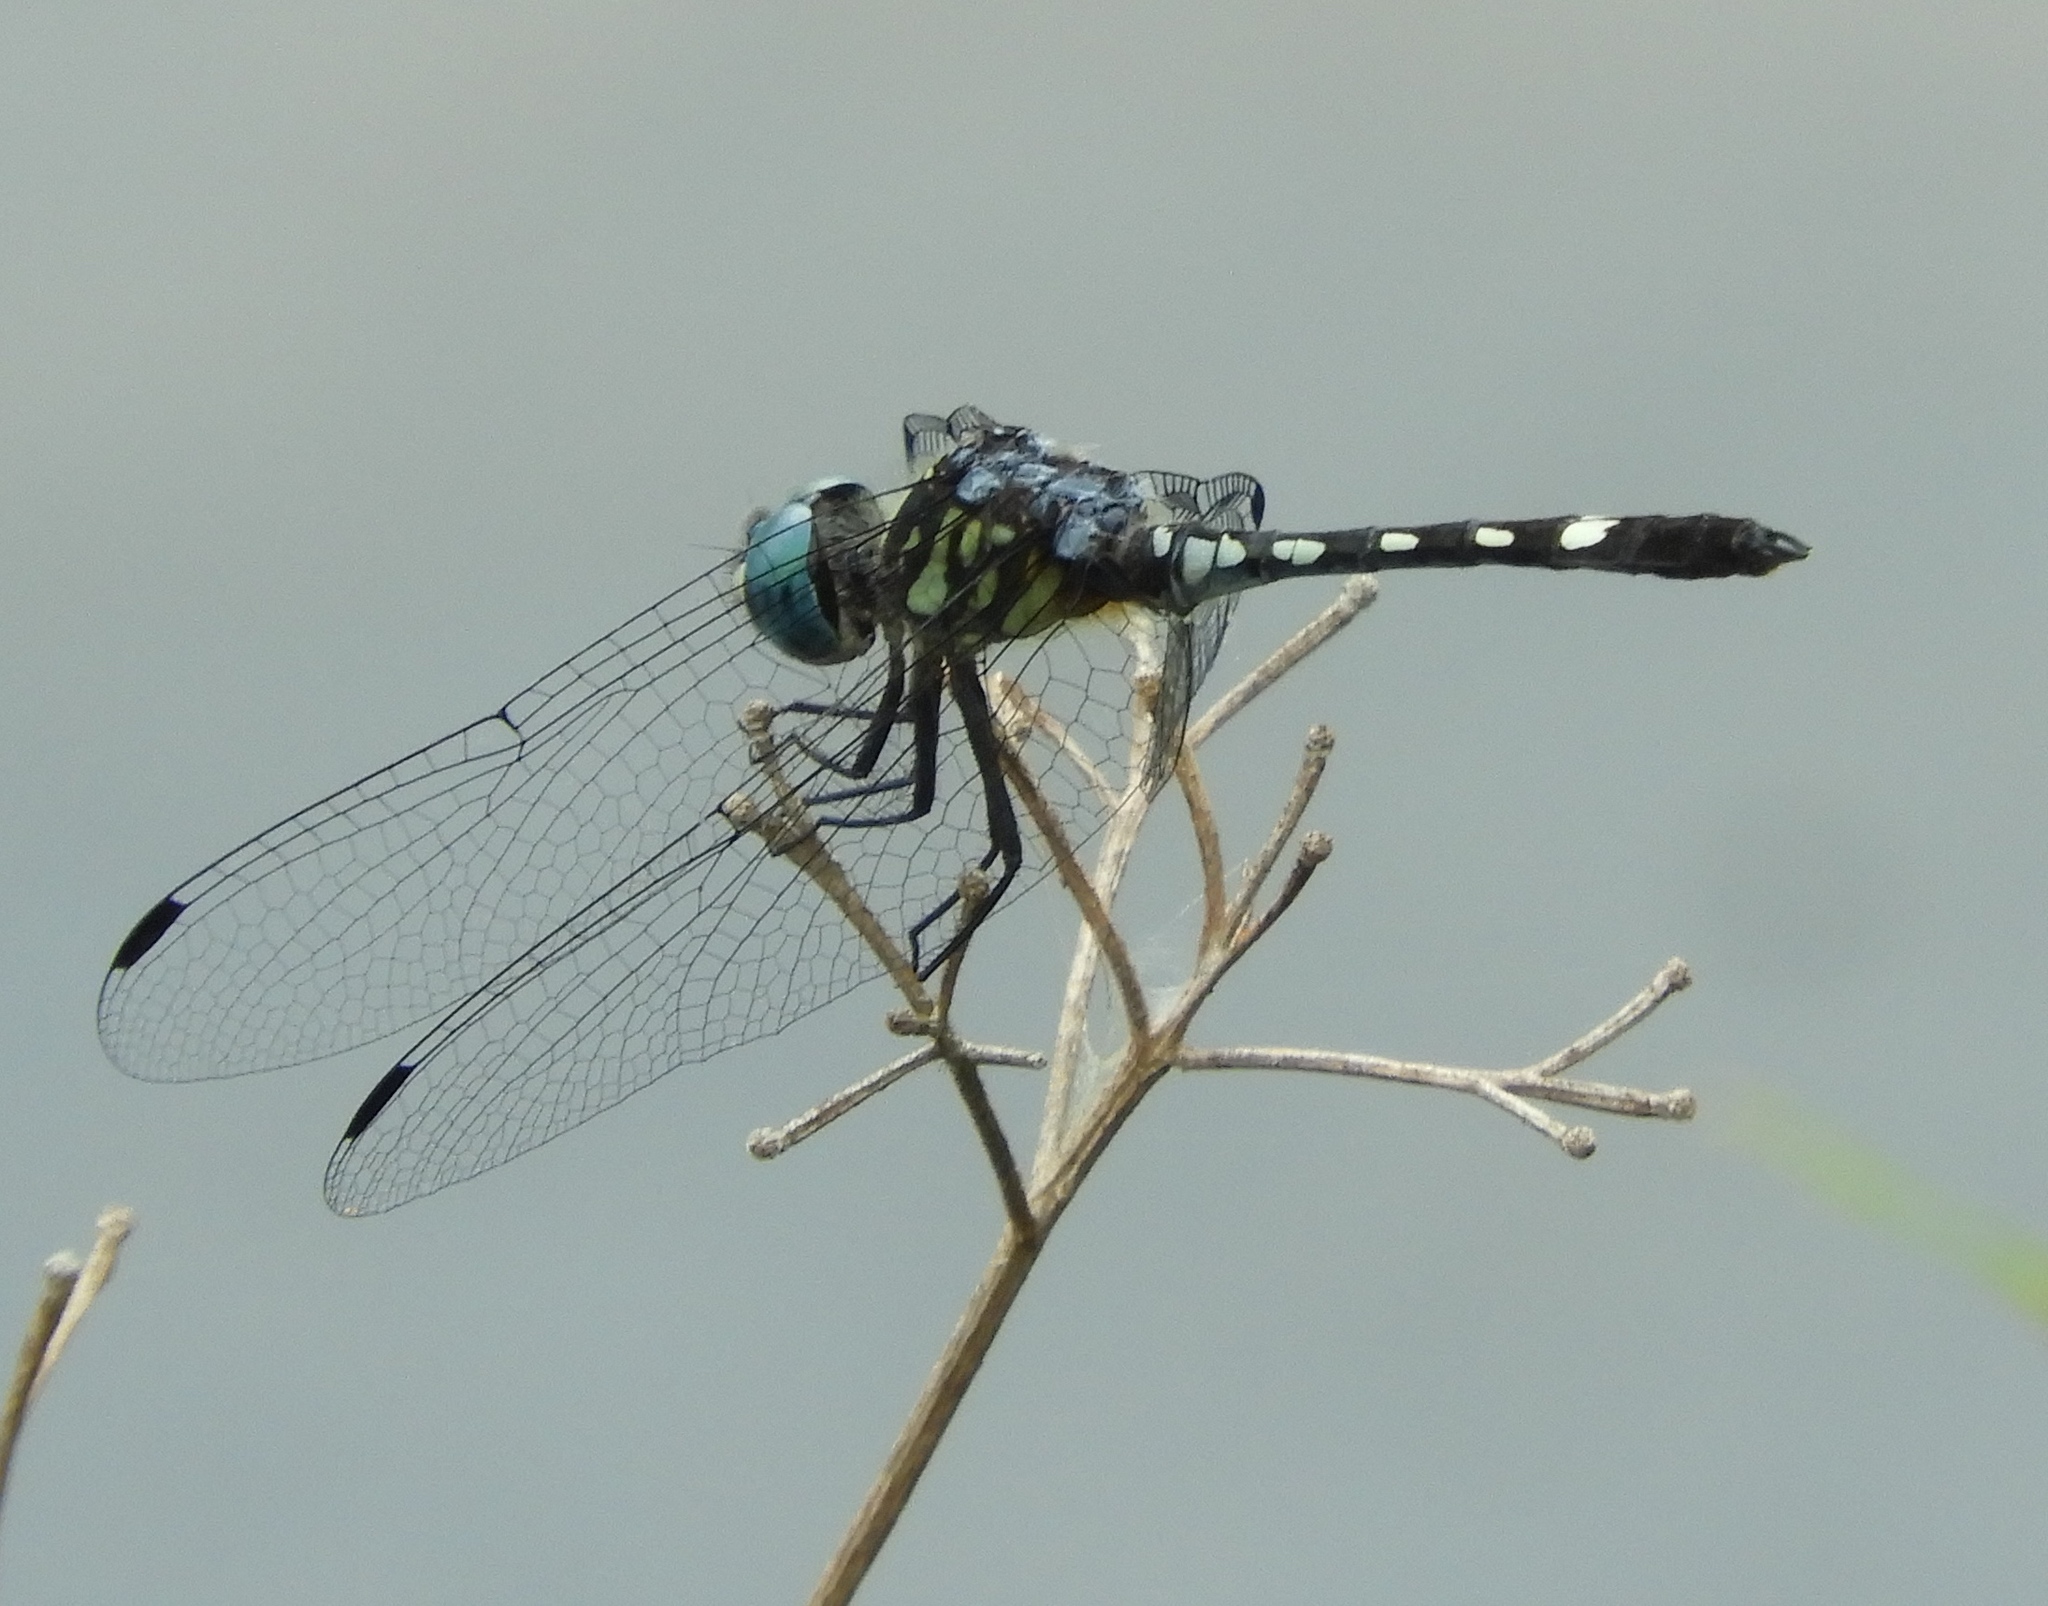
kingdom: Animalia
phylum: Arthropoda
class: Insecta
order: Odonata
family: Libellulidae
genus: Micrathyria
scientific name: Micrathyria hagenii
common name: Thornbush dasher
